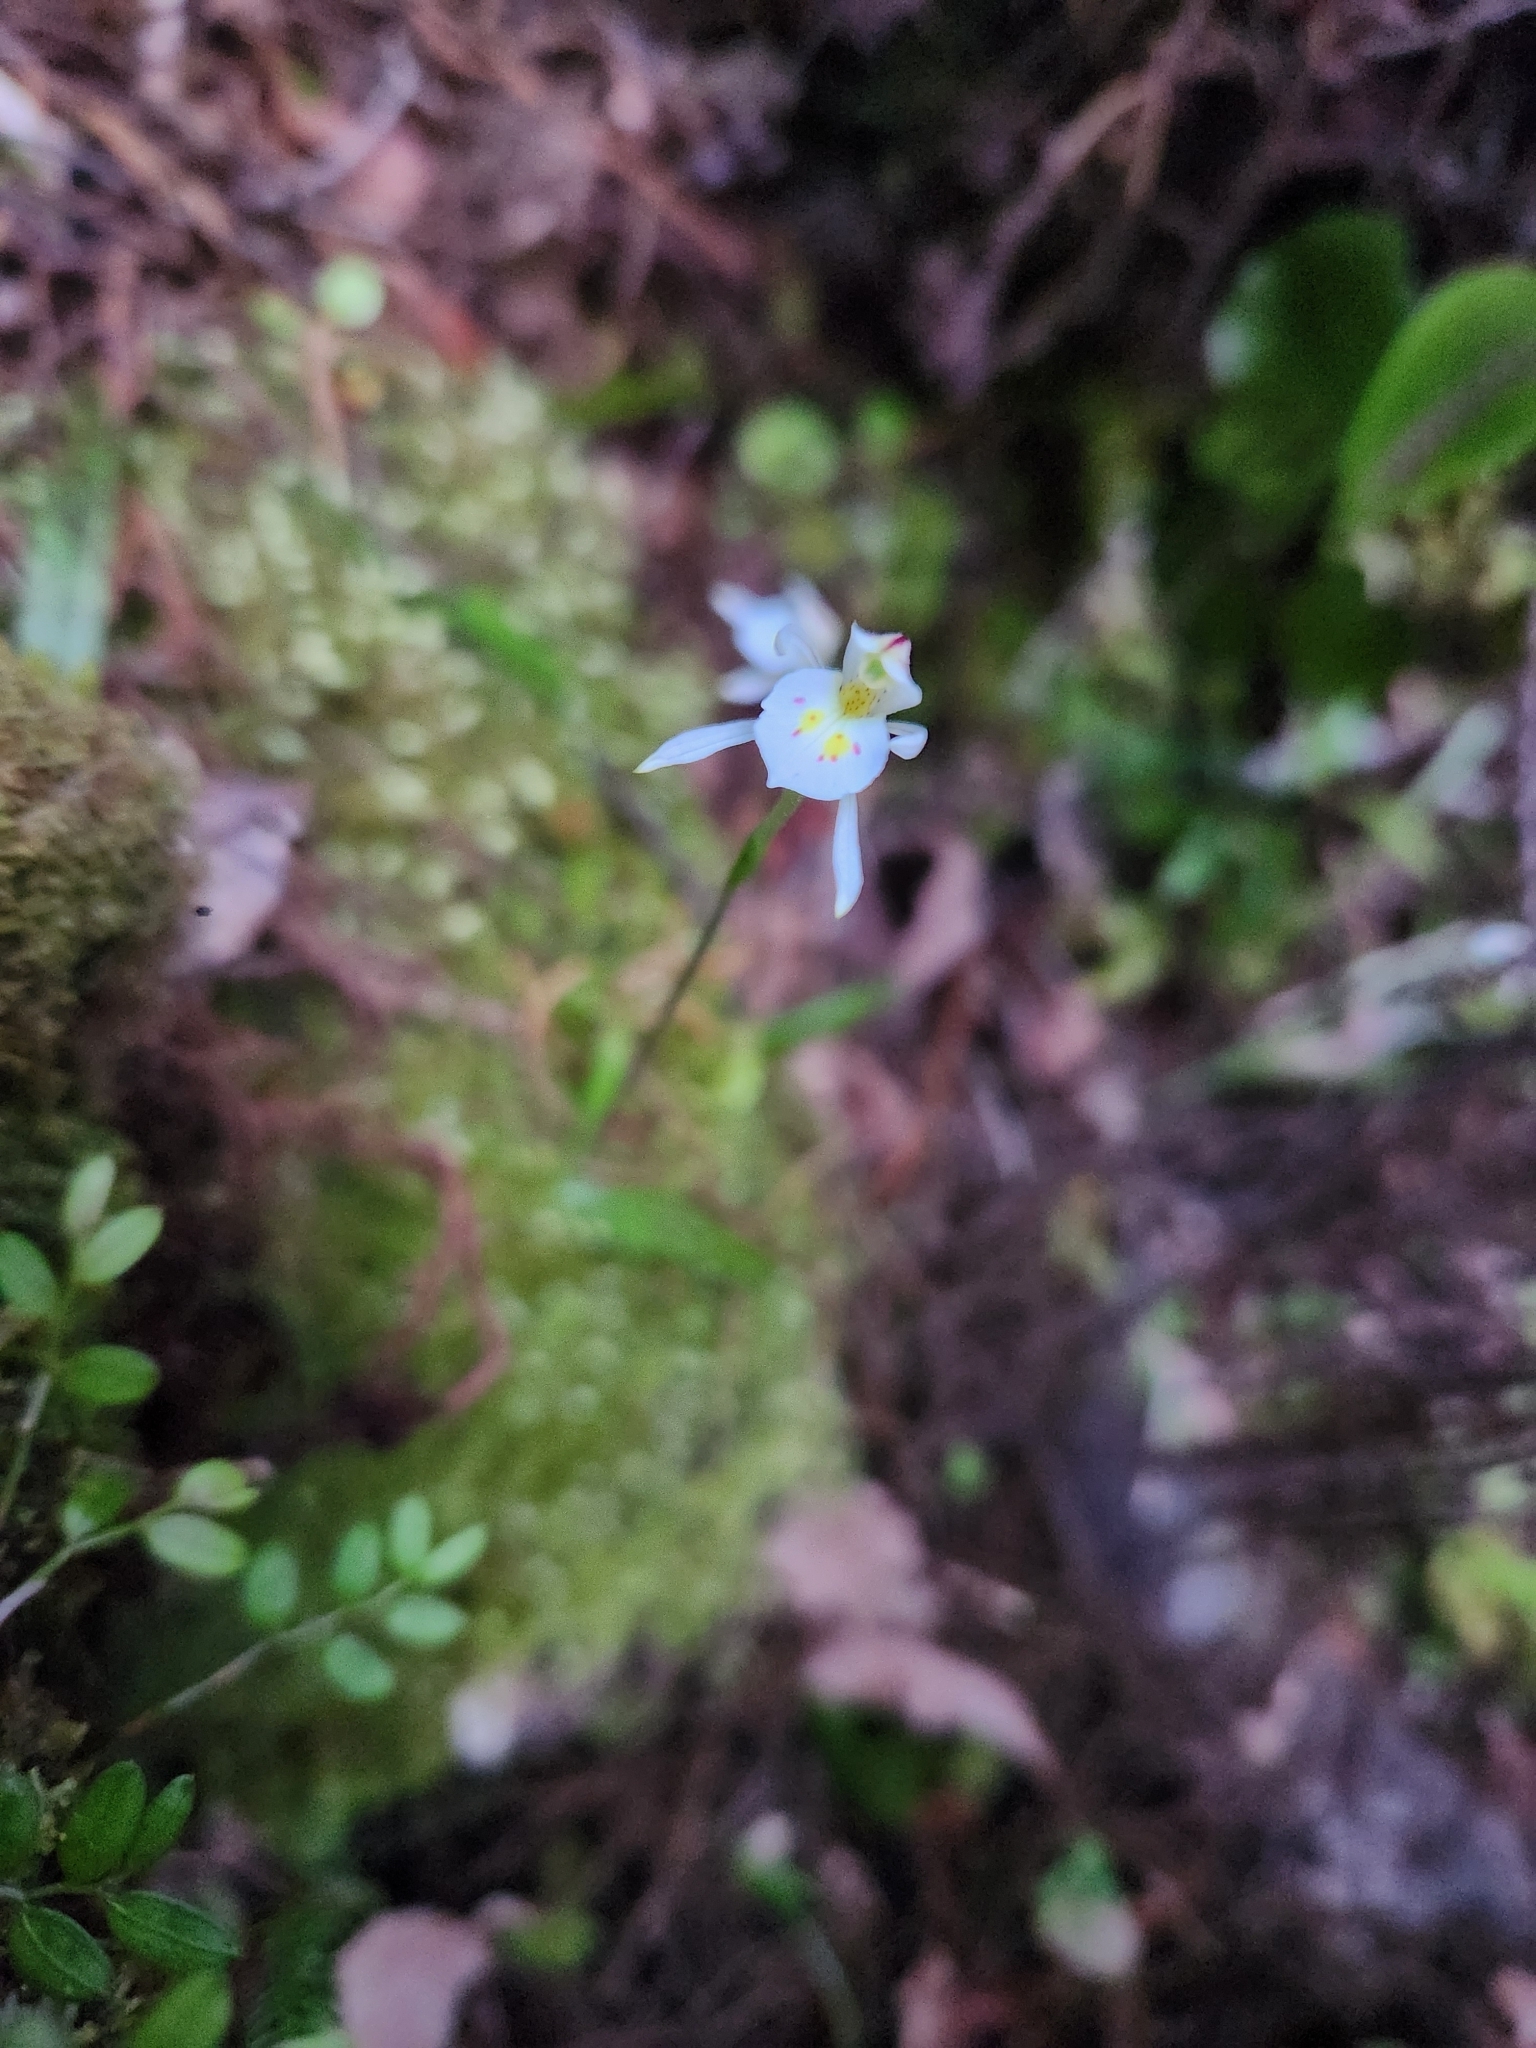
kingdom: Plantae
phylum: Tracheophyta
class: Liliopsida
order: Asparagales
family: Orchidaceae
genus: Aporostylis
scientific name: Aporostylis bifolia
